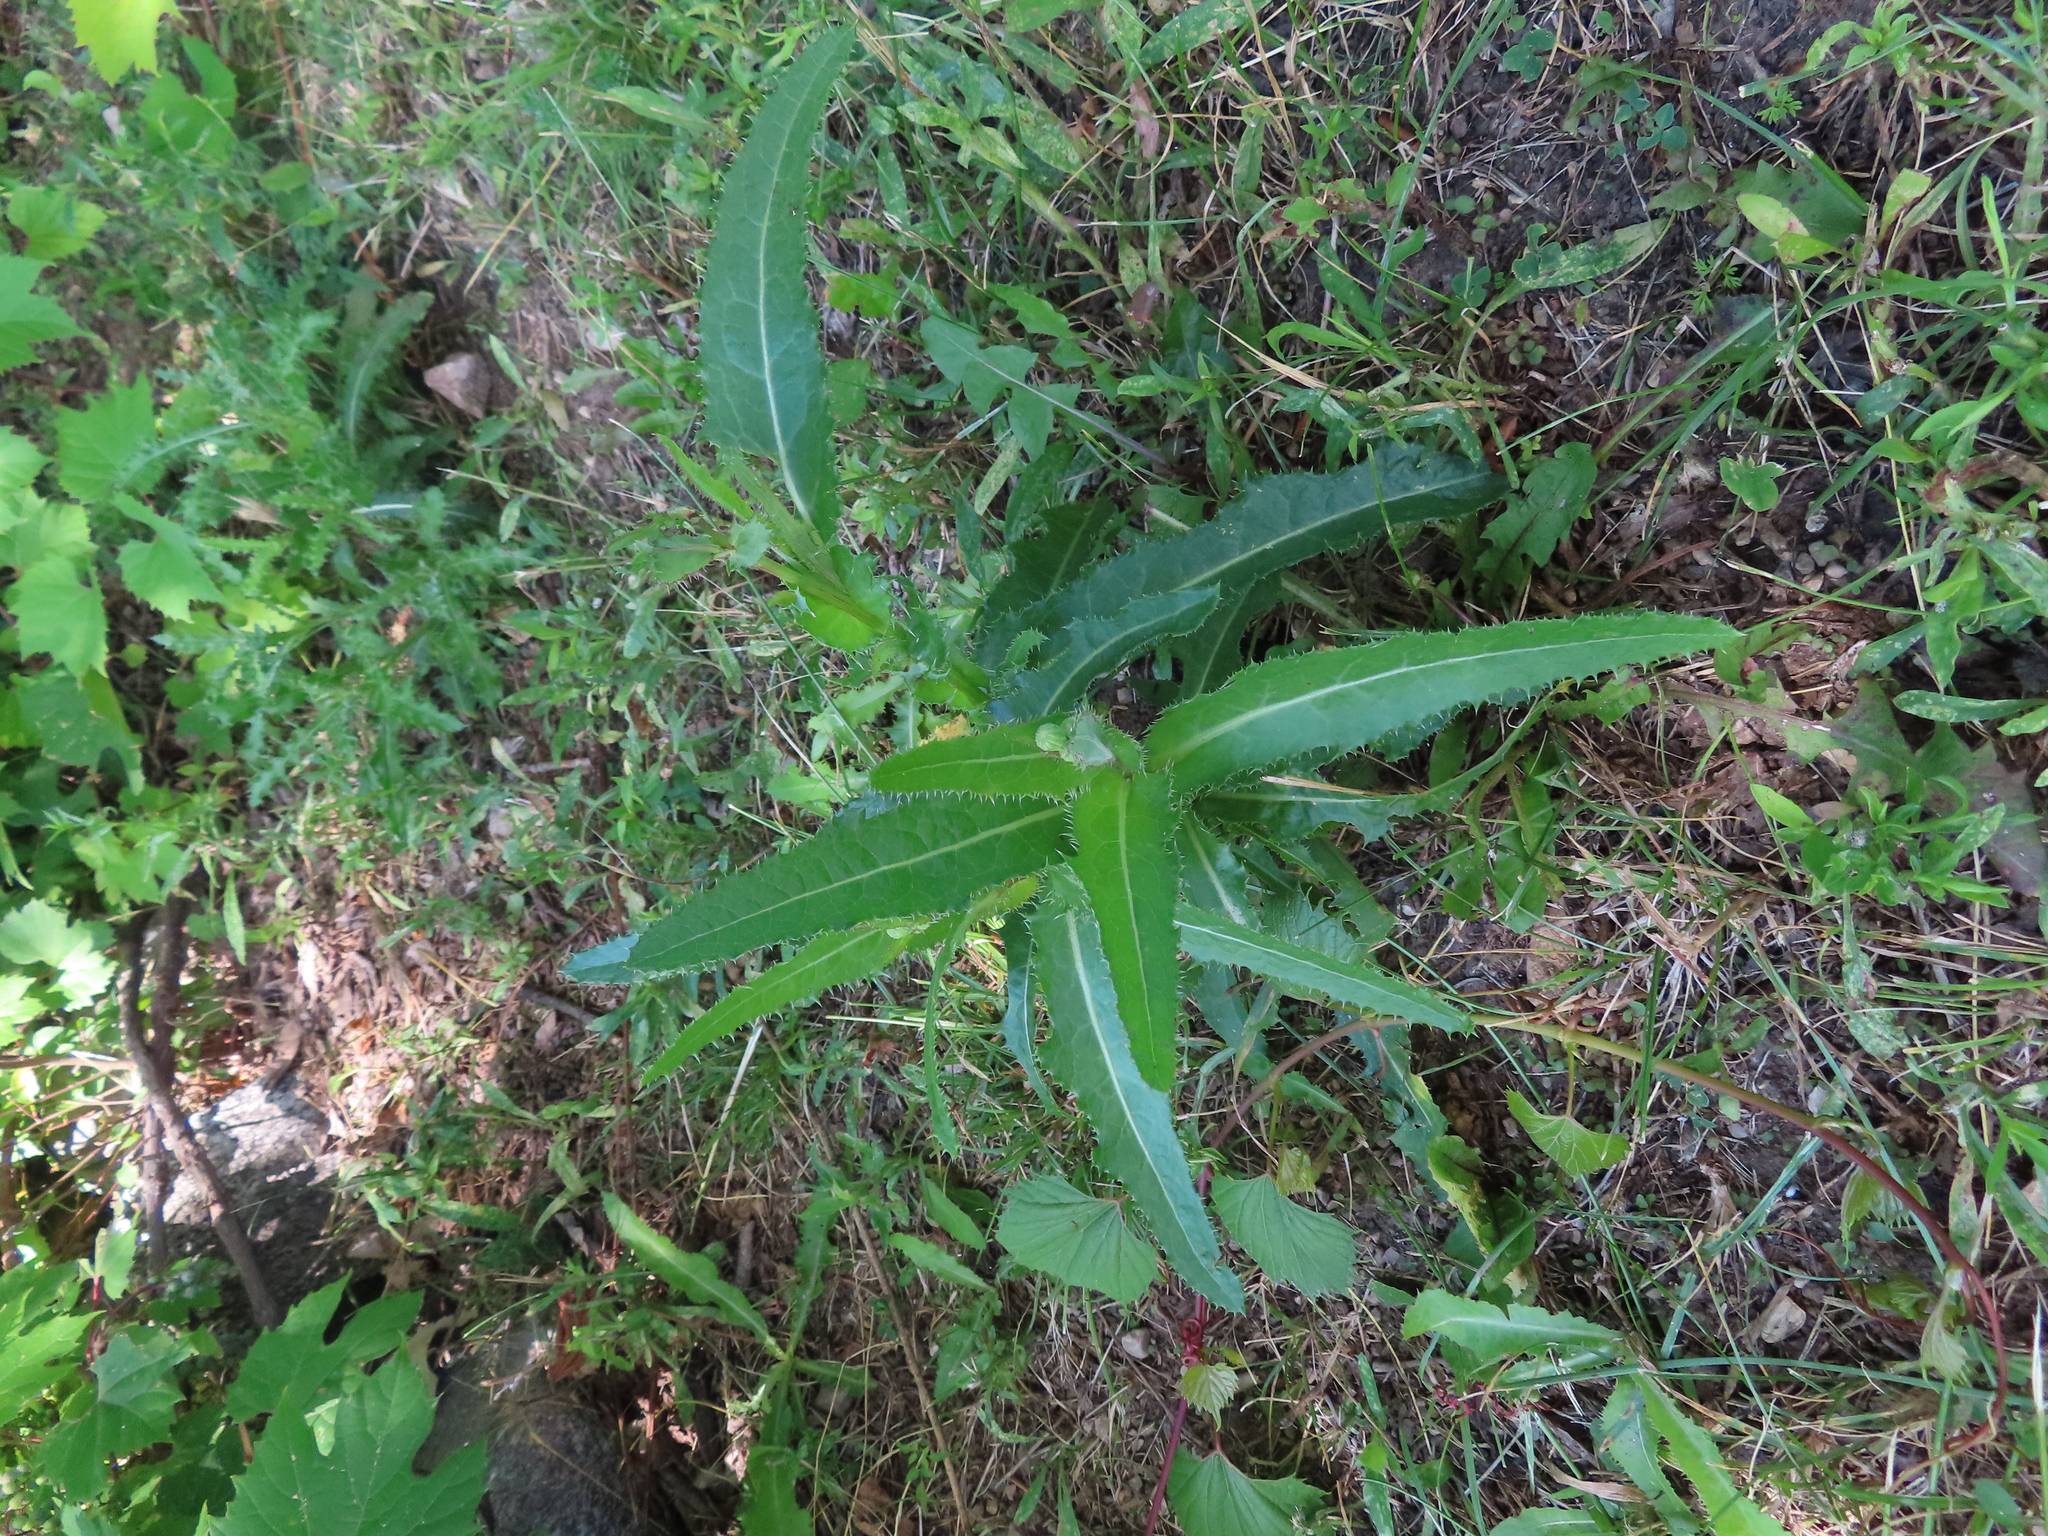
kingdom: Plantae
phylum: Tracheophyta
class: Magnoliopsida
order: Asterales
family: Asteraceae
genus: Cirsium
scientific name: Cirsium arvense
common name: Creeping thistle
